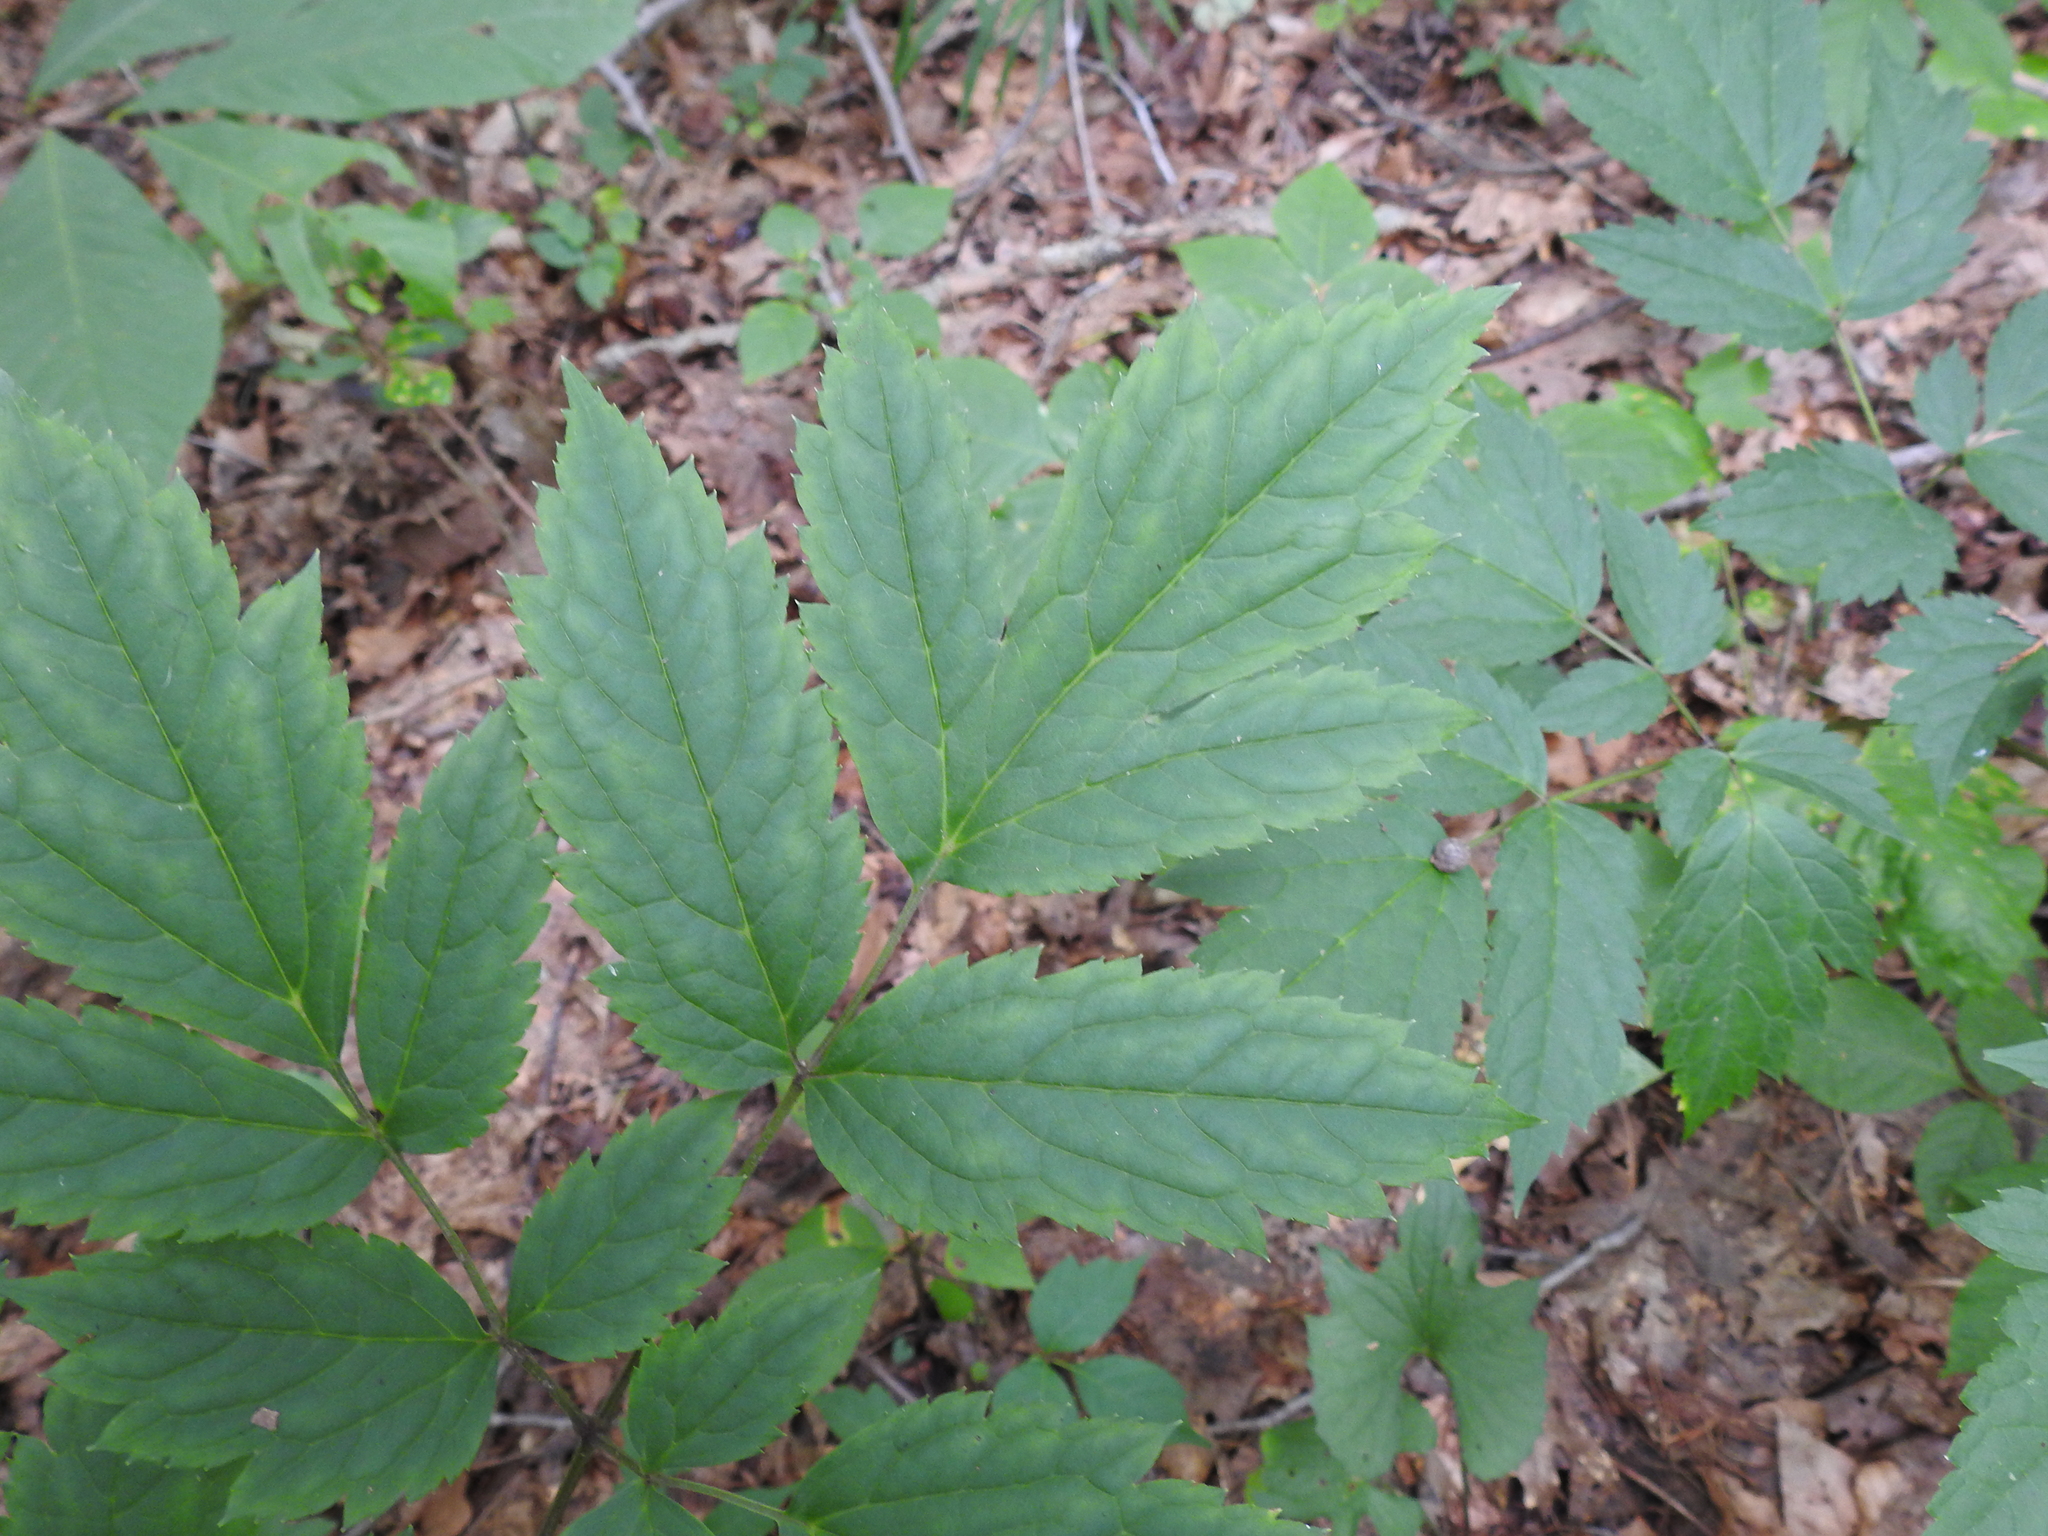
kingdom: Plantae
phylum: Tracheophyta
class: Magnoliopsida
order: Ranunculales
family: Ranunculaceae
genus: Actaea
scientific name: Actaea racemosa
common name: Black cohosh
